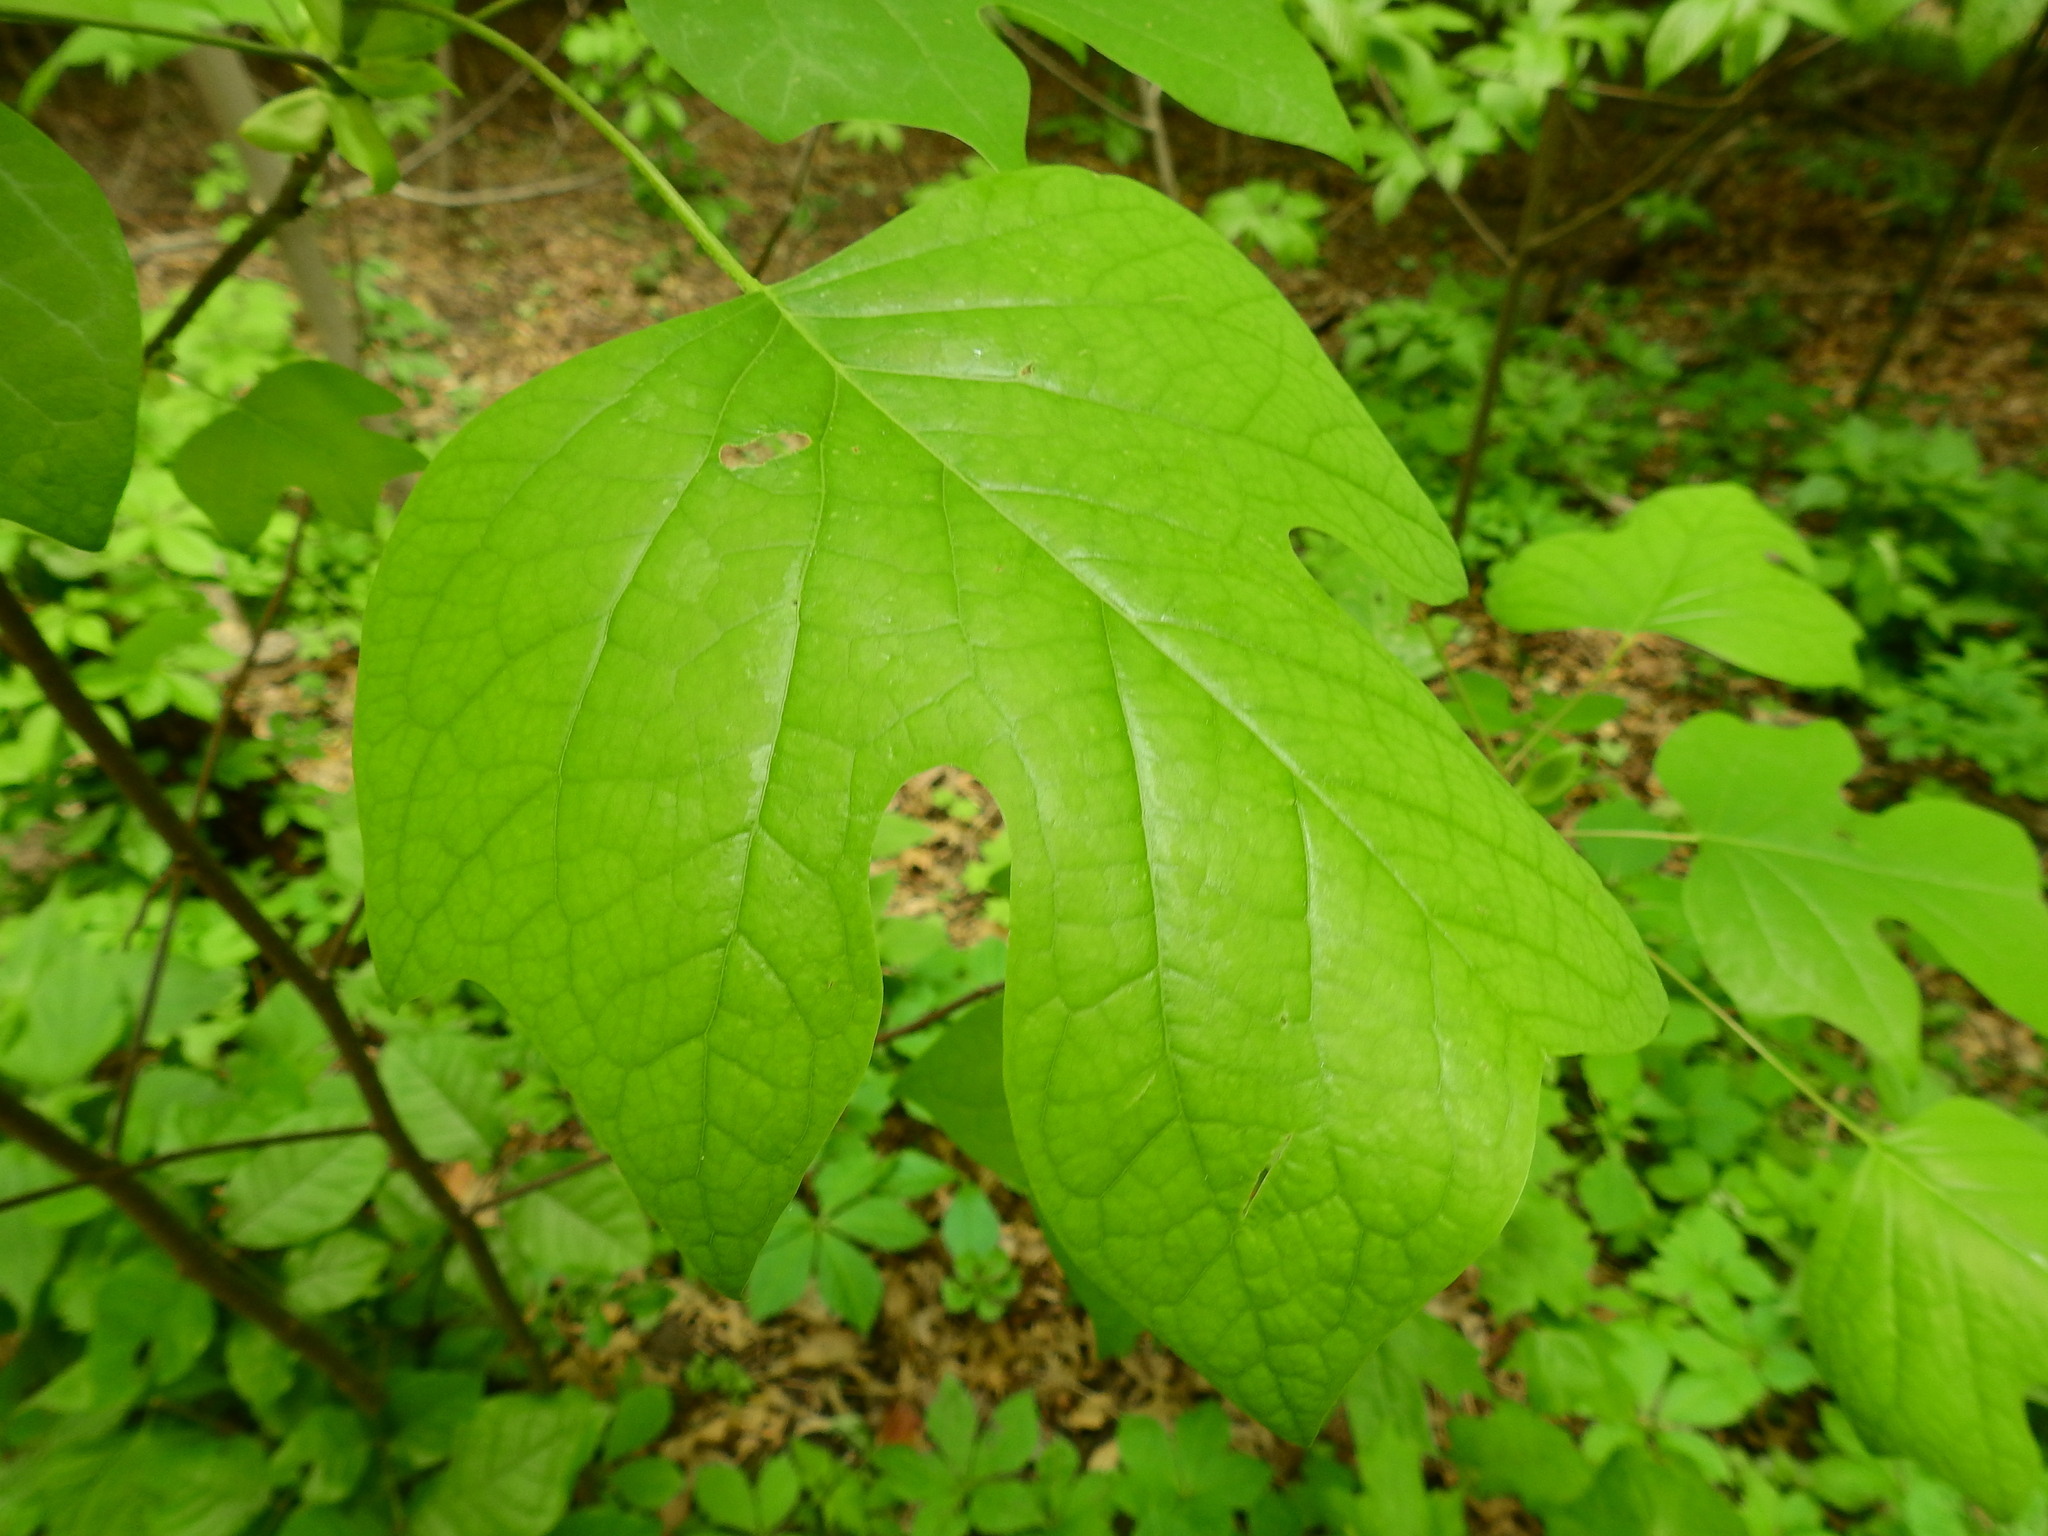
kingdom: Plantae
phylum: Tracheophyta
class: Magnoliopsida
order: Magnoliales
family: Magnoliaceae
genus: Liriodendron
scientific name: Liriodendron tulipifera
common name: Tulip tree
